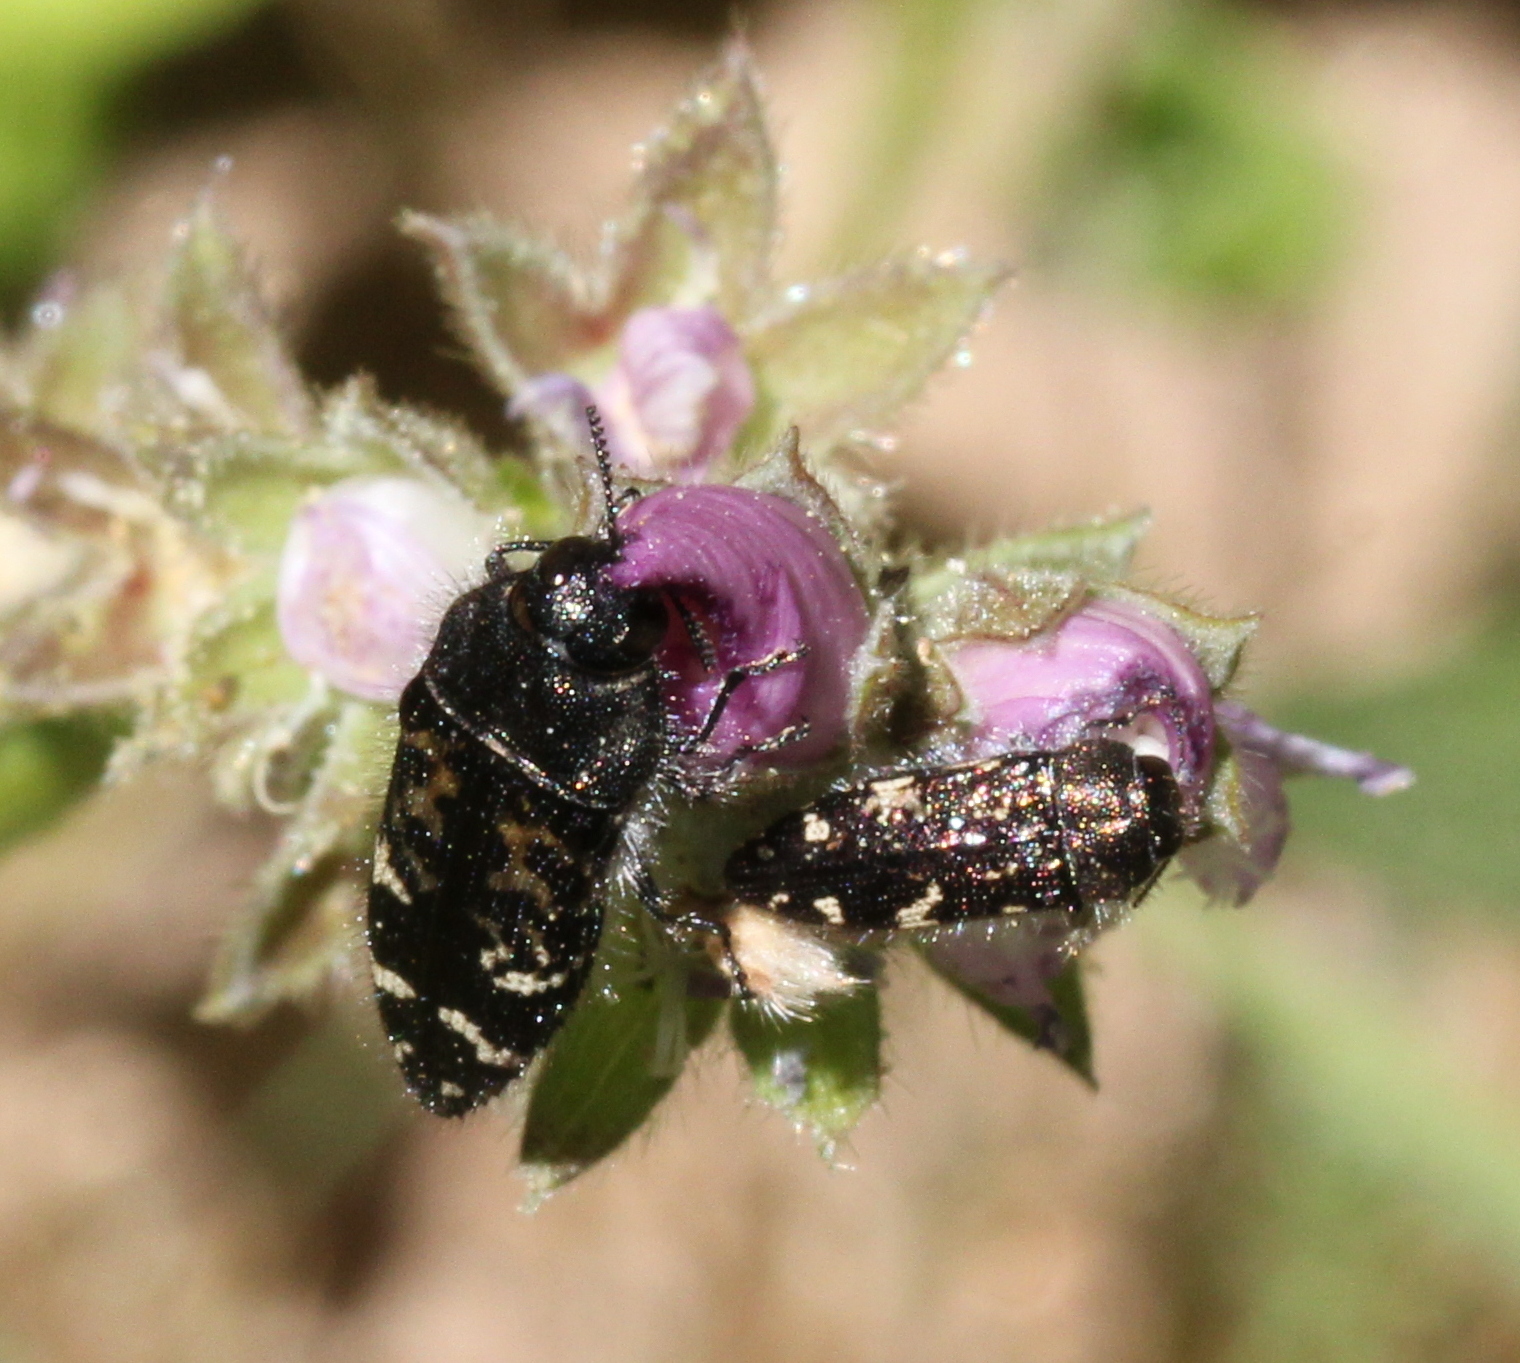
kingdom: Animalia
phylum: Arthropoda
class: Insecta
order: Coleoptera
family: Buprestidae
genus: Acmaeodera
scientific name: Acmaeodera connexa
